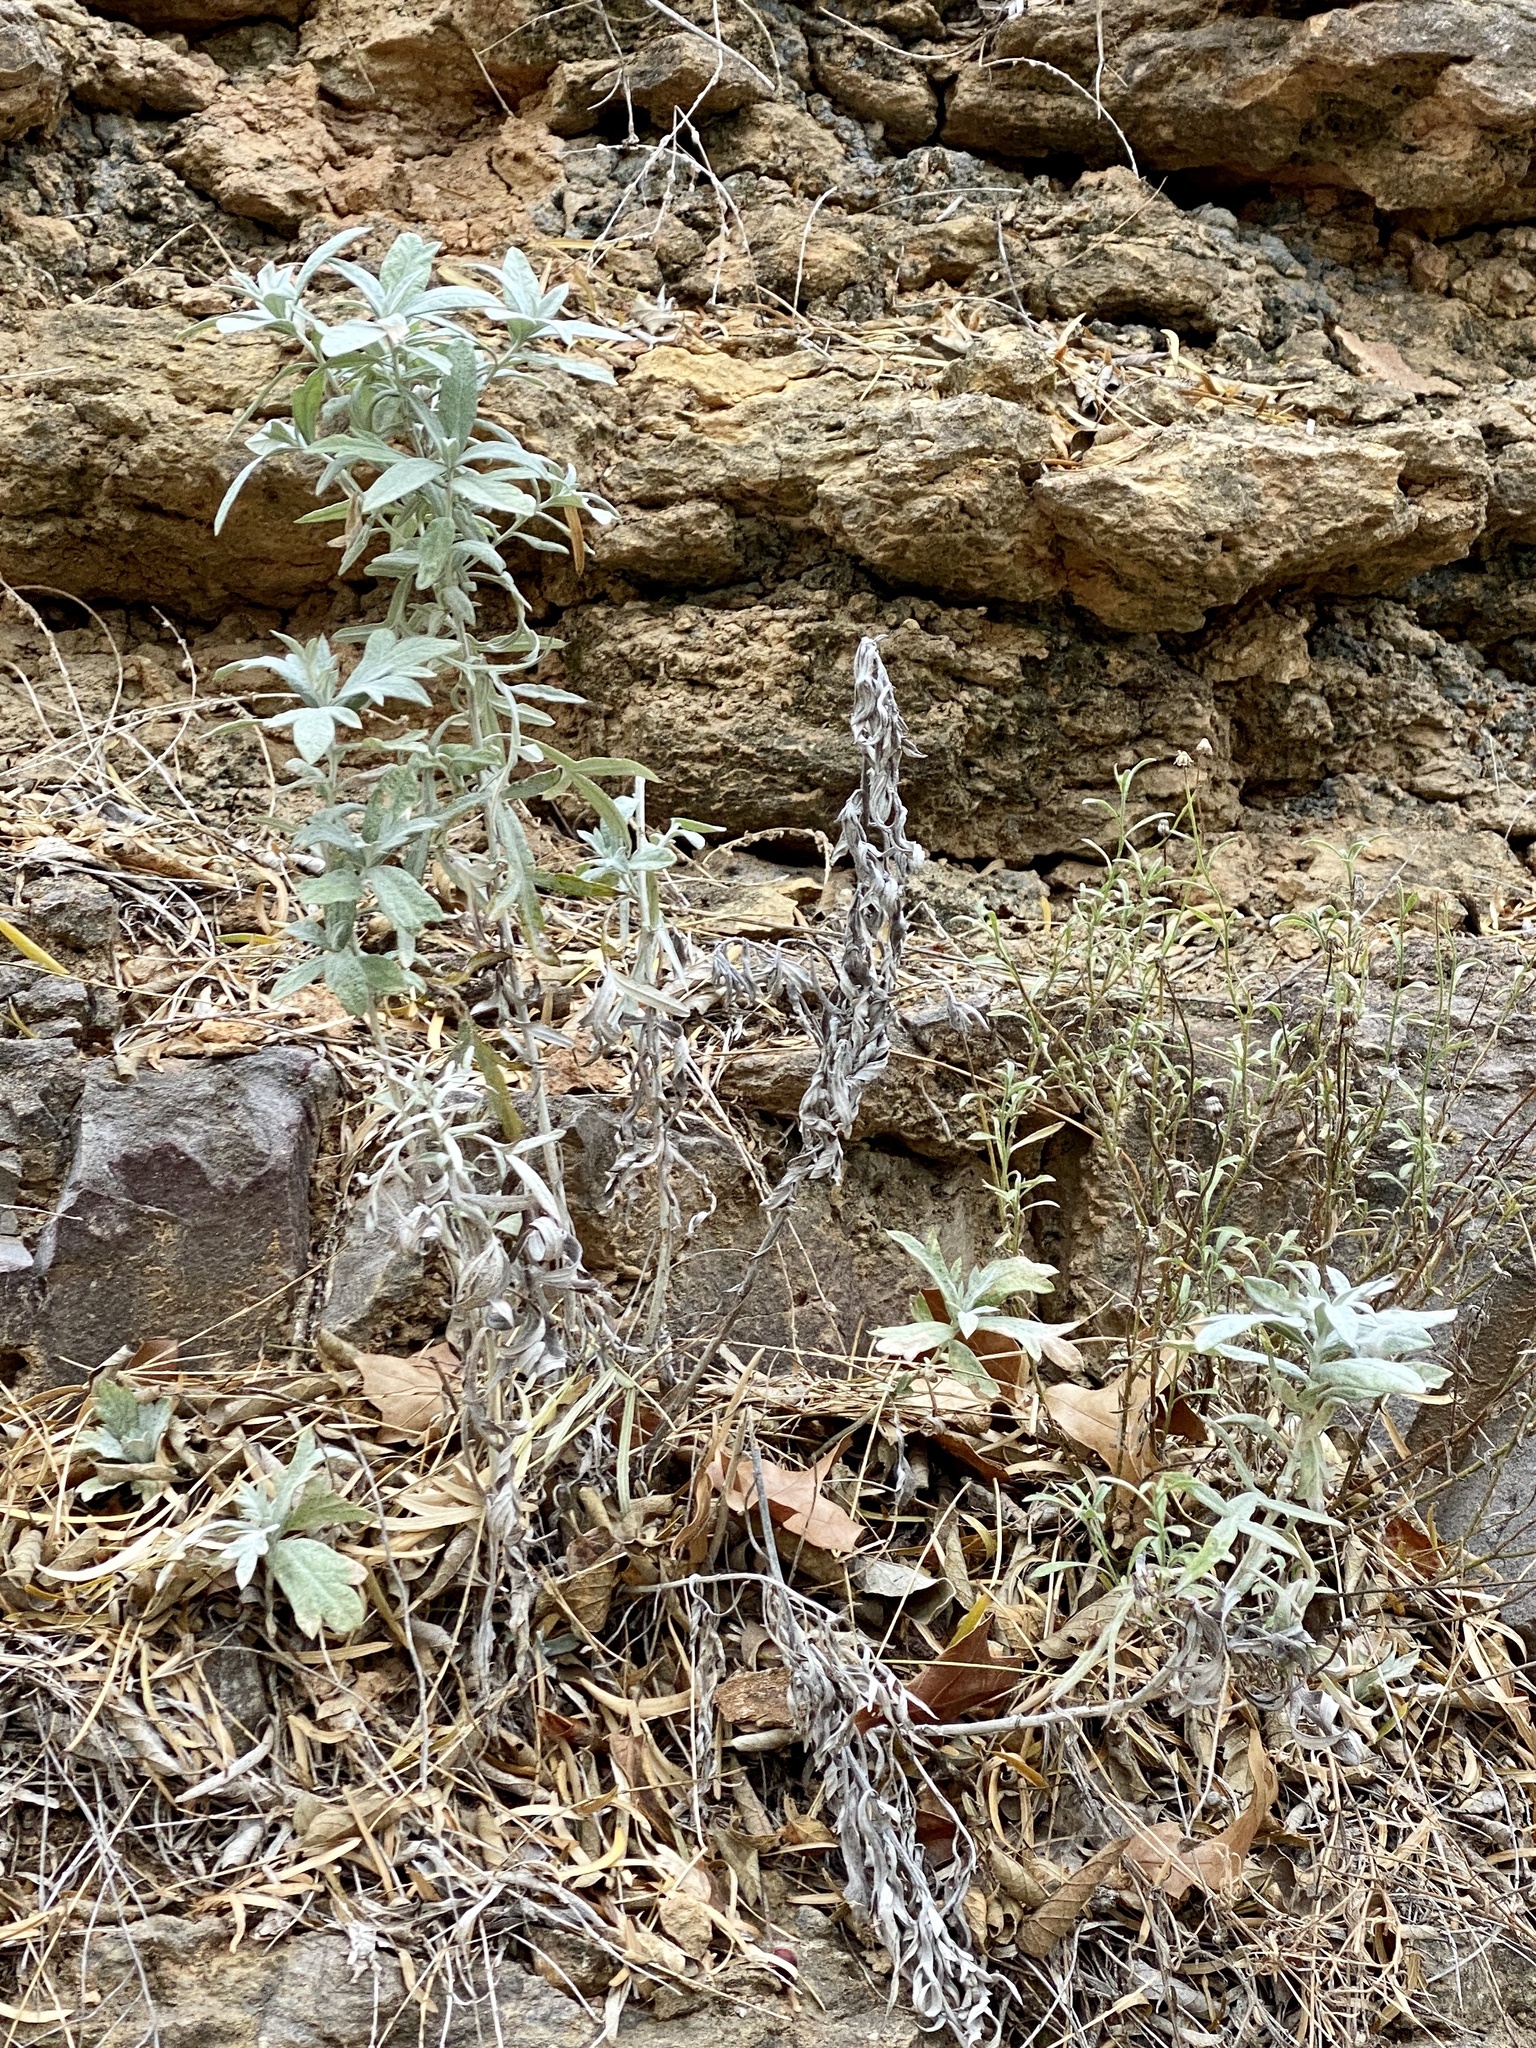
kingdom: Plantae
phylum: Tracheophyta
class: Magnoliopsida
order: Asterales
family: Asteraceae
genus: Artemisia
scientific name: Artemisia ludoviciana
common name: Western mugwort
